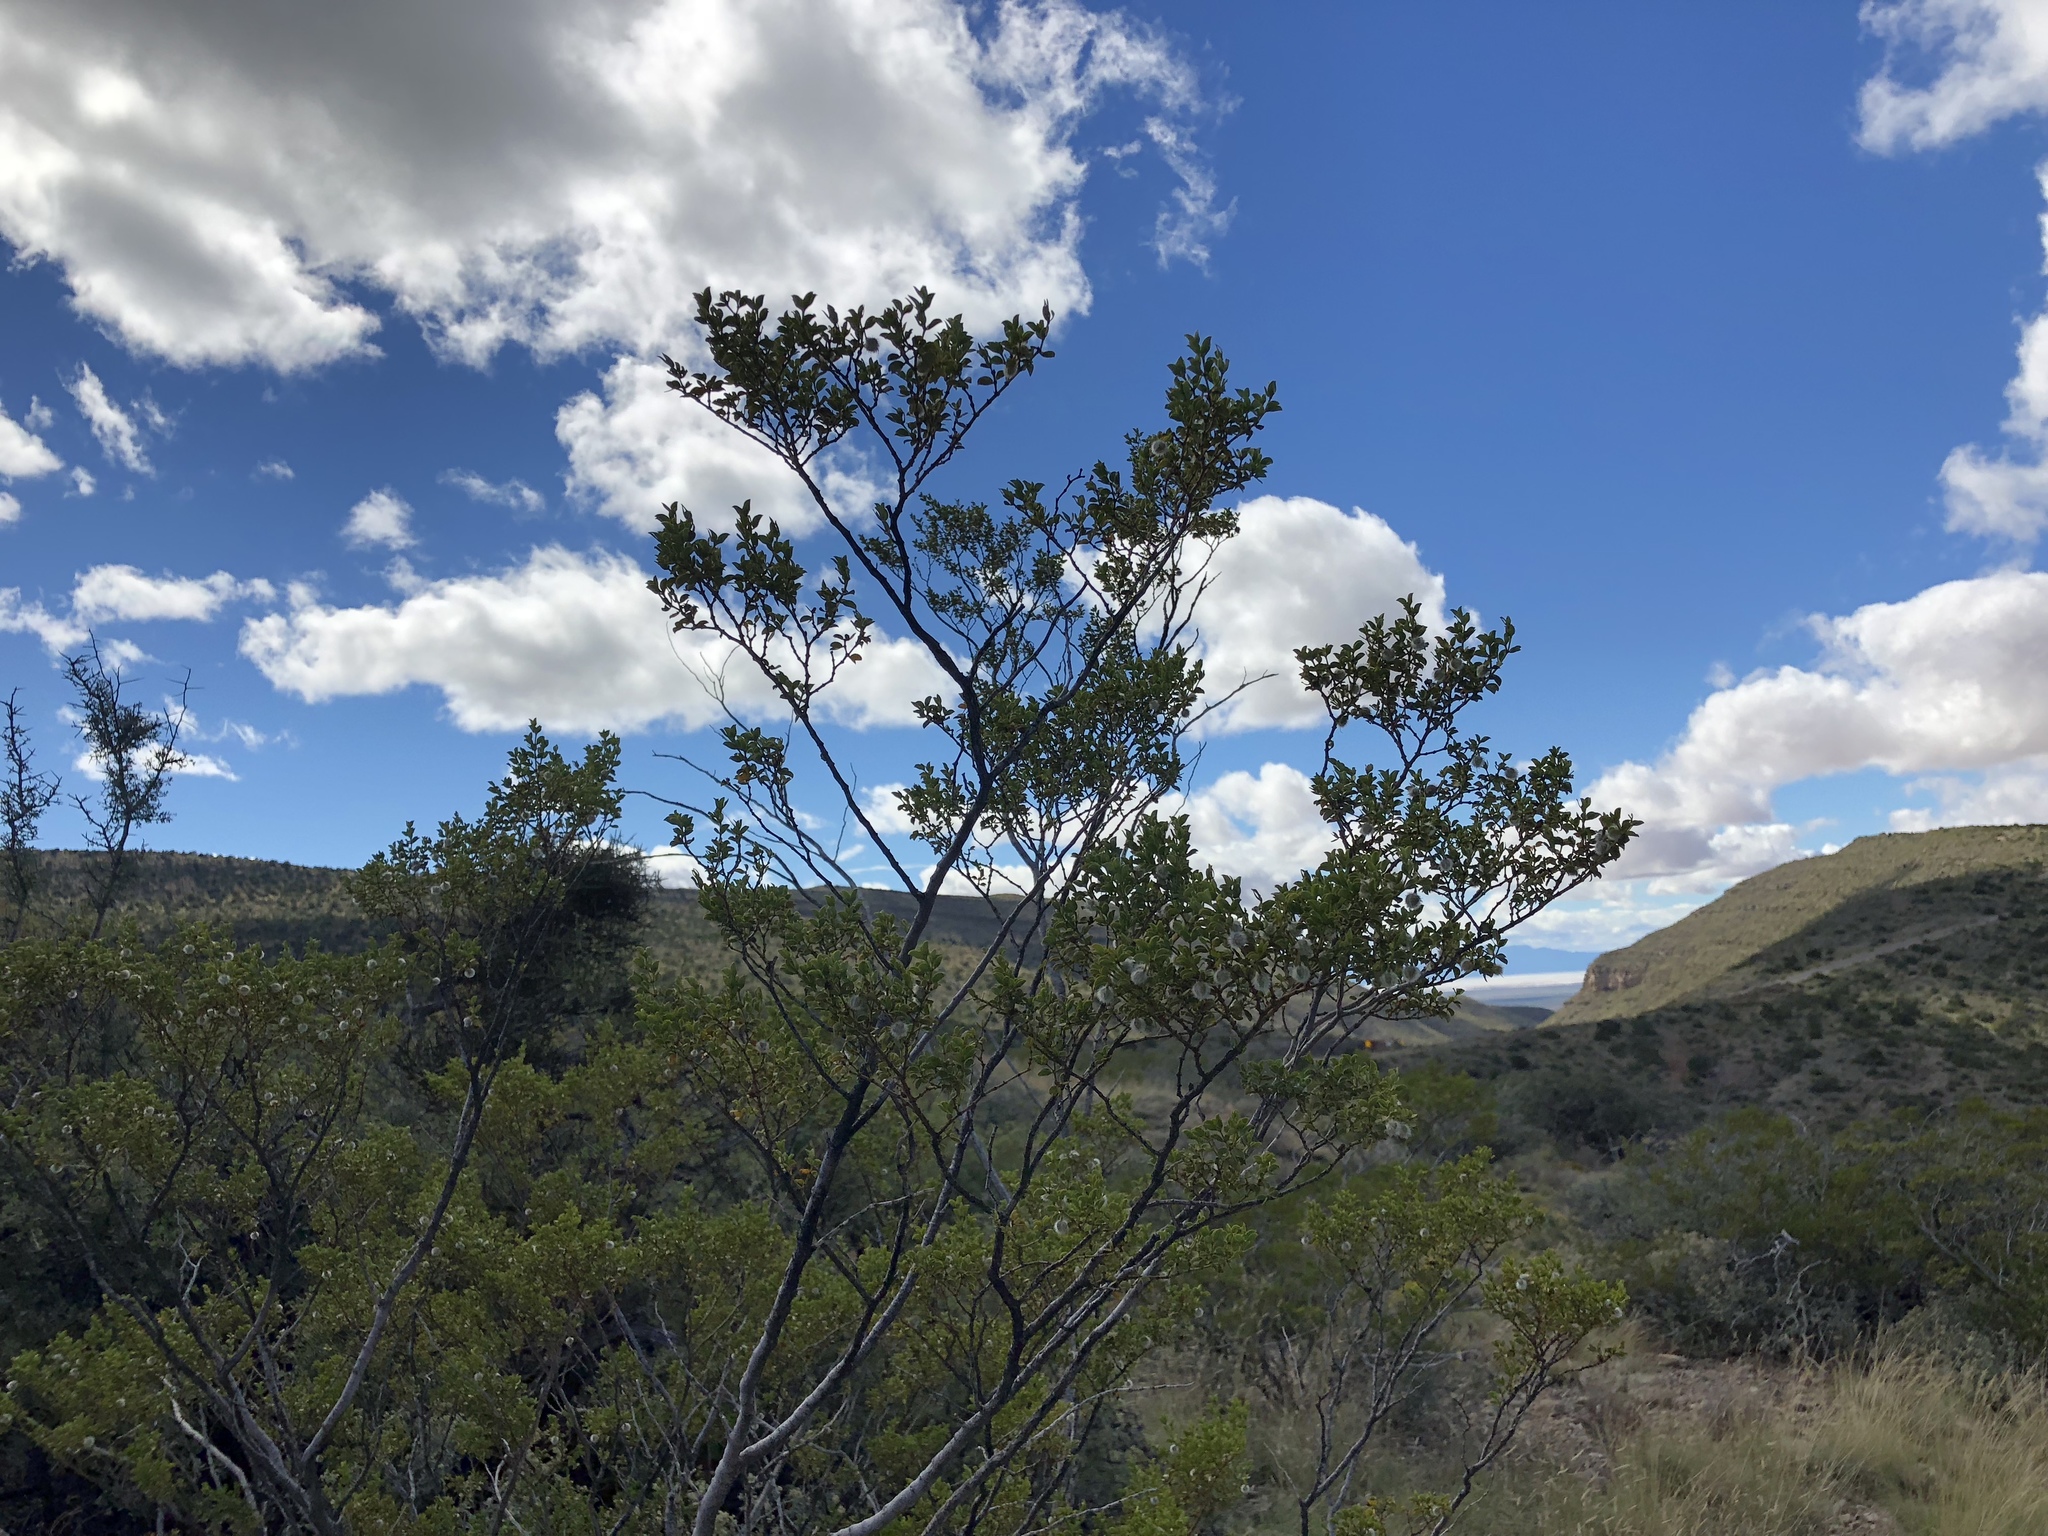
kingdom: Plantae
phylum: Tracheophyta
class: Magnoliopsida
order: Zygophyllales
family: Zygophyllaceae
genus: Larrea
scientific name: Larrea tridentata
